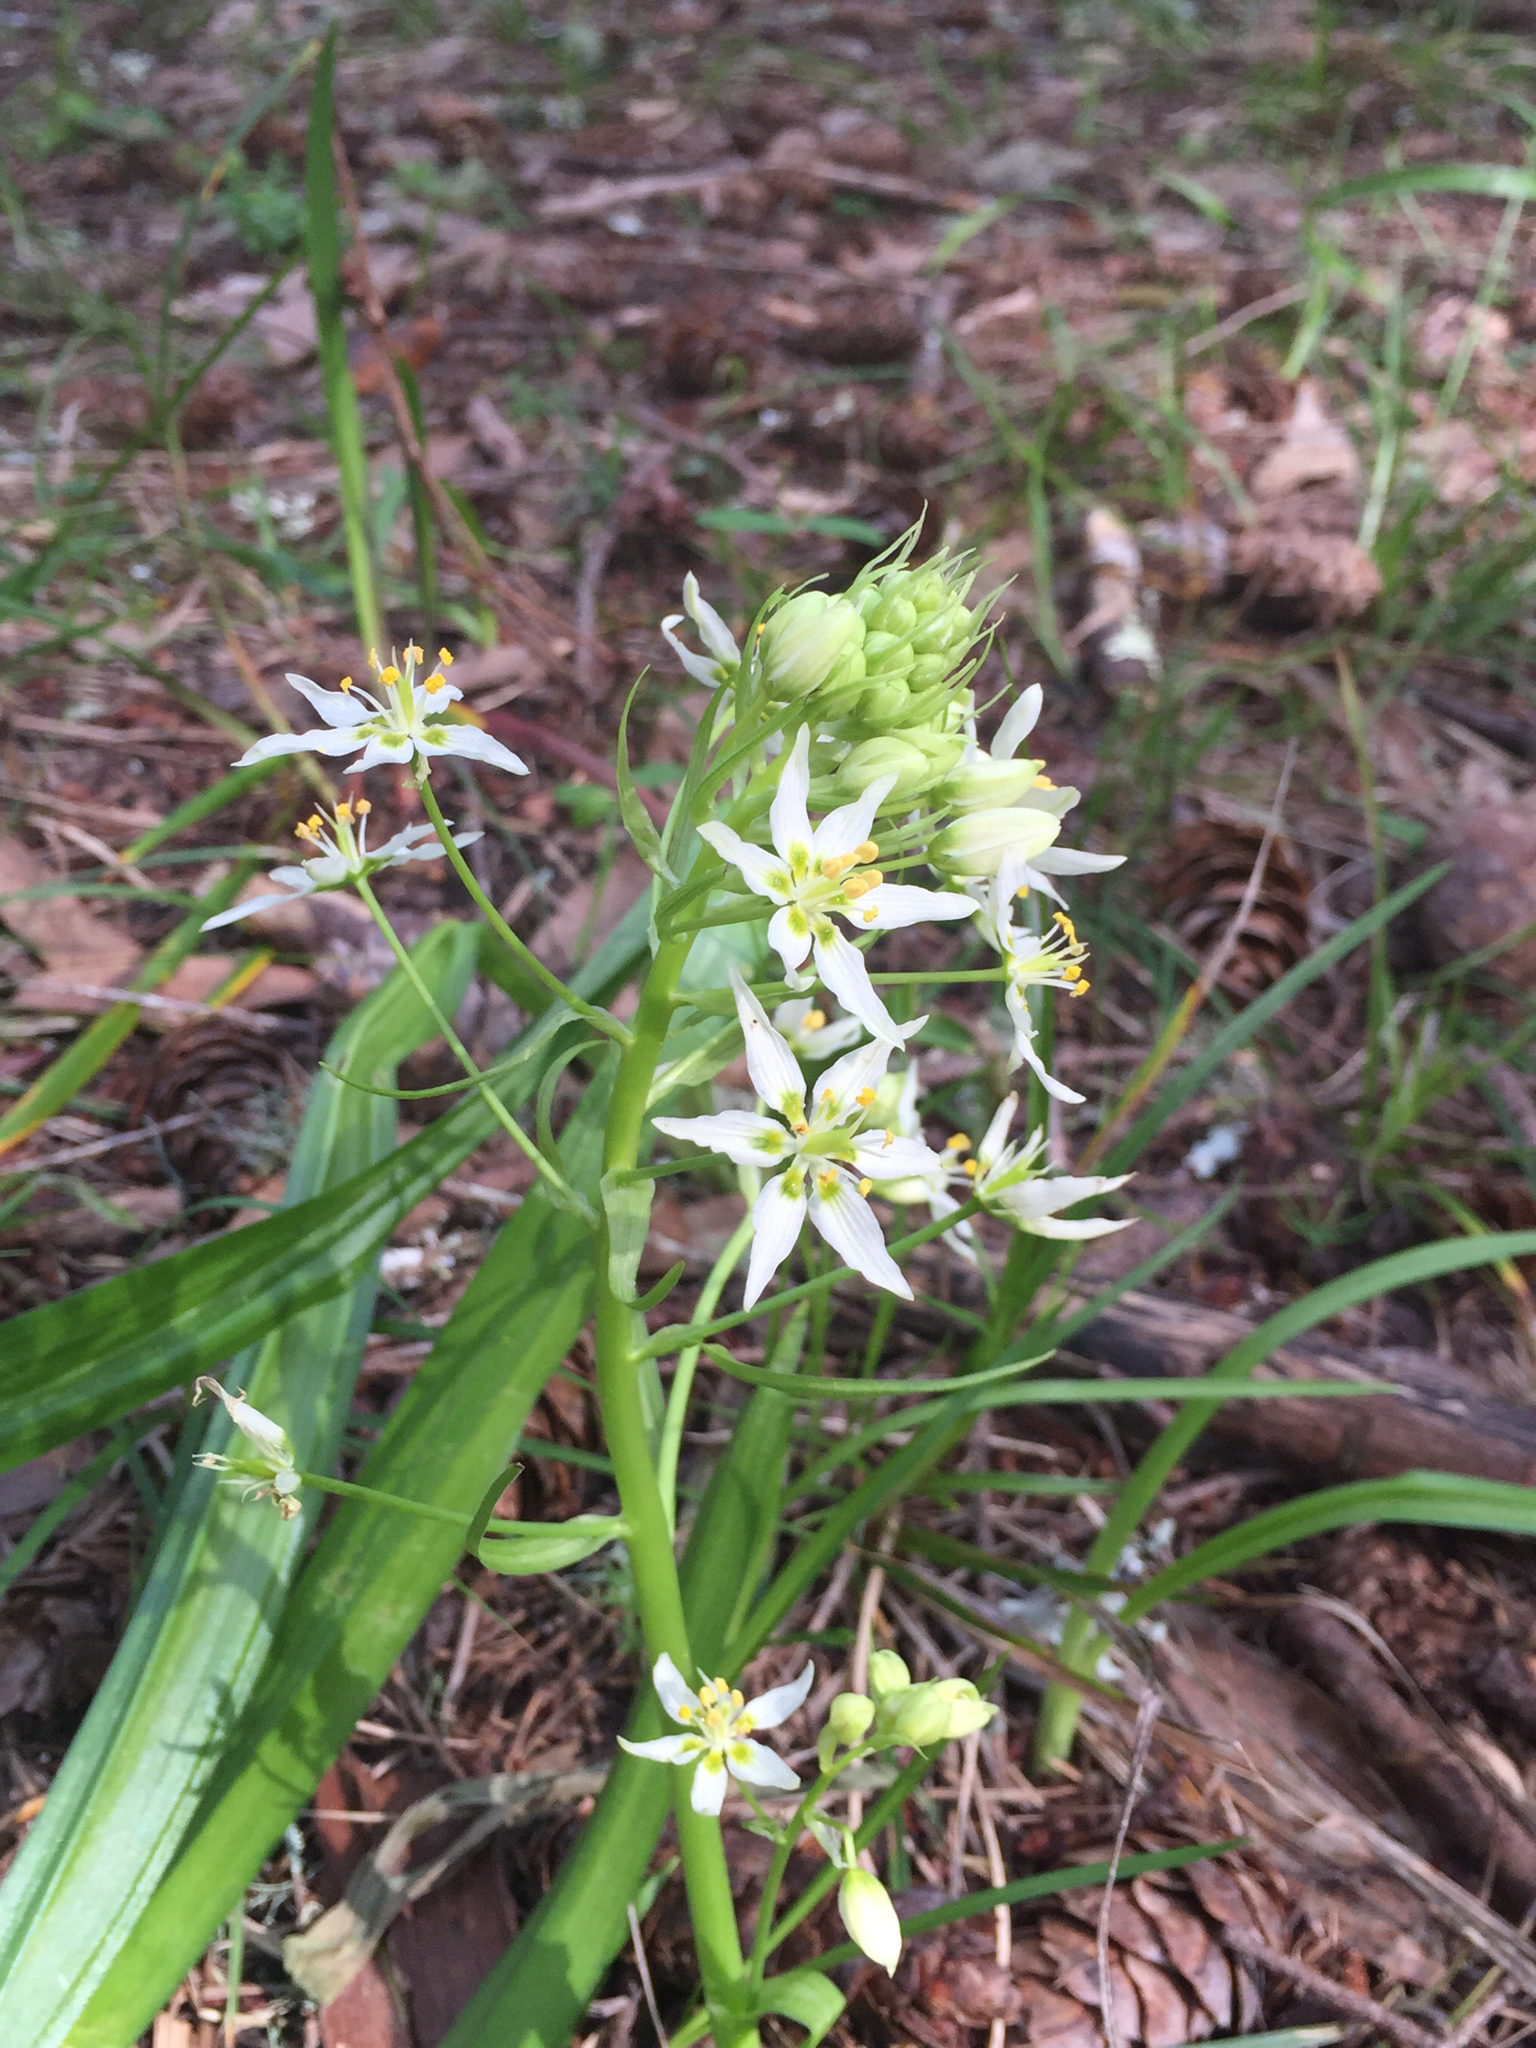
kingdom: Plantae
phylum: Tracheophyta
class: Liliopsida
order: Liliales
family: Melanthiaceae
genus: Toxicoscordion
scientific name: Toxicoscordion fremontii
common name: Fremont's death camas
